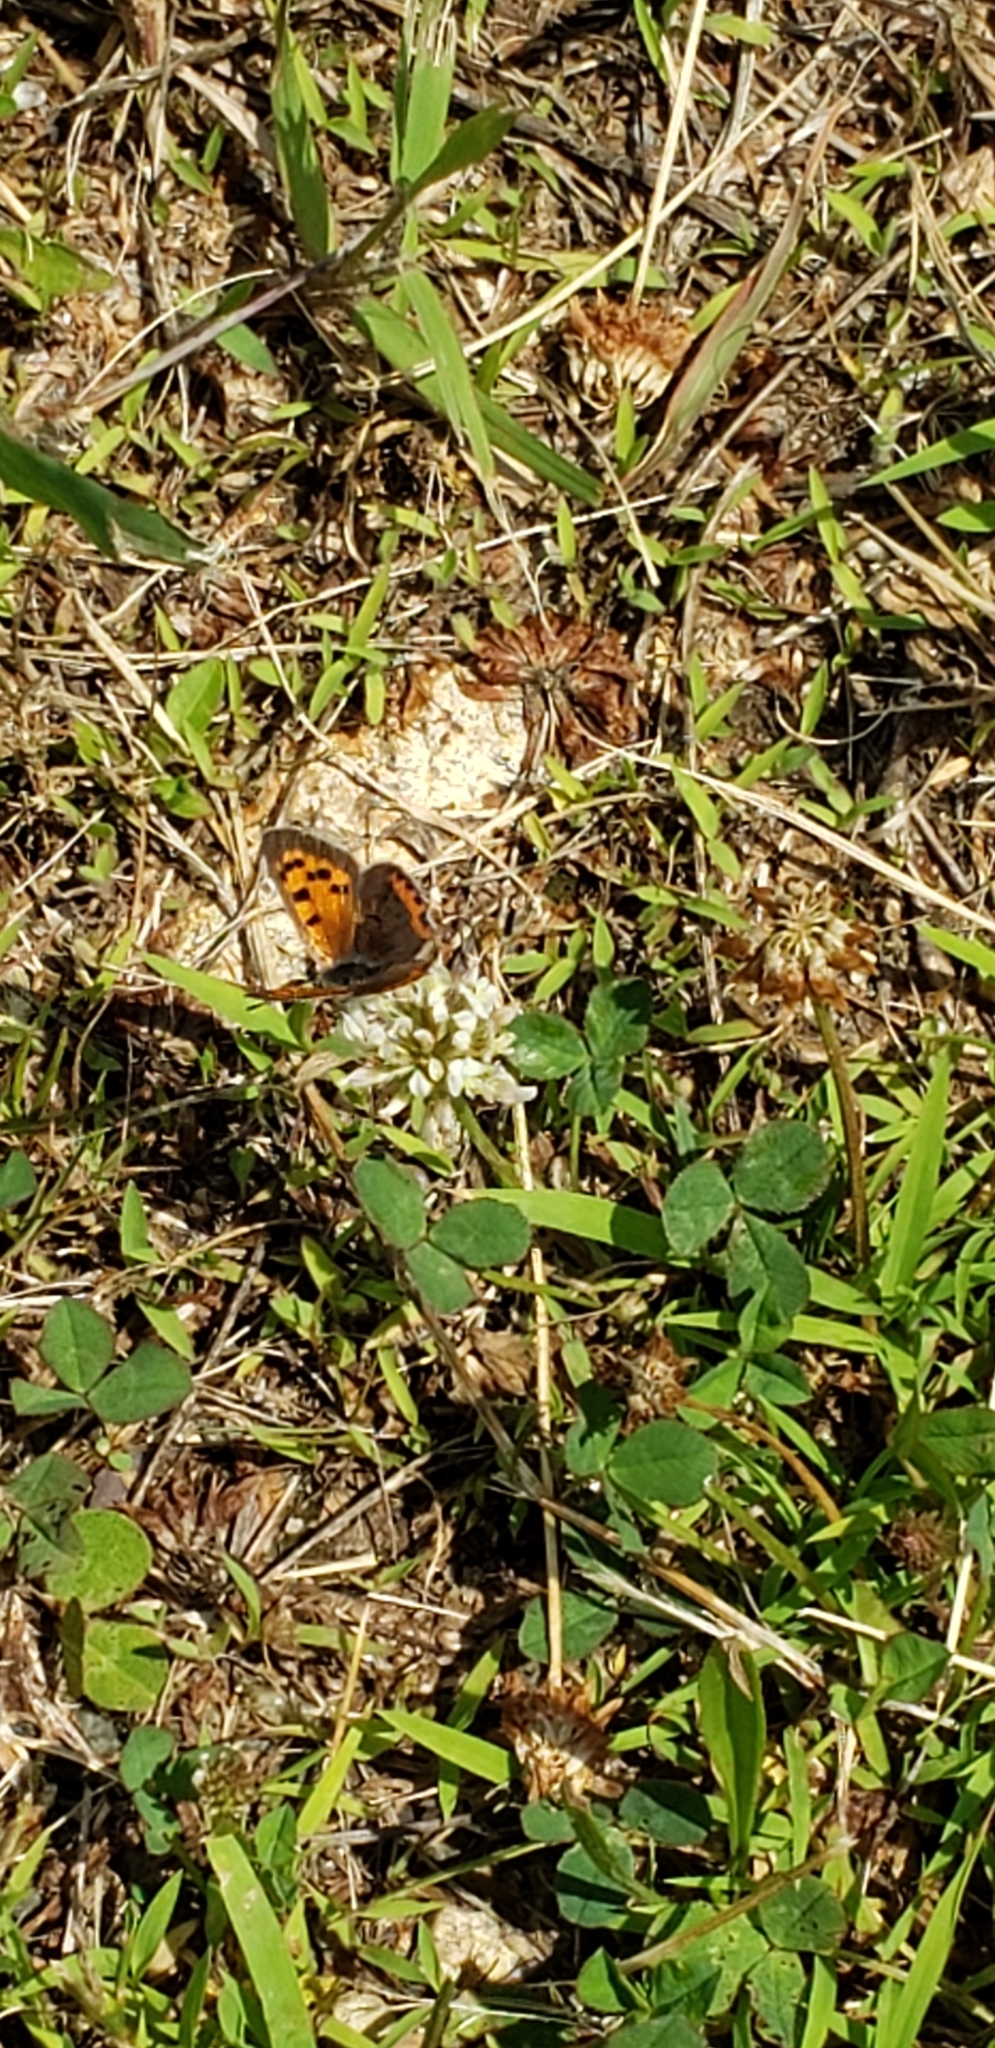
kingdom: Animalia
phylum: Arthropoda
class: Insecta
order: Lepidoptera
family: Lycaenidae
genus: Lycaena
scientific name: Lycaena hypophlaeas
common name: American copper
